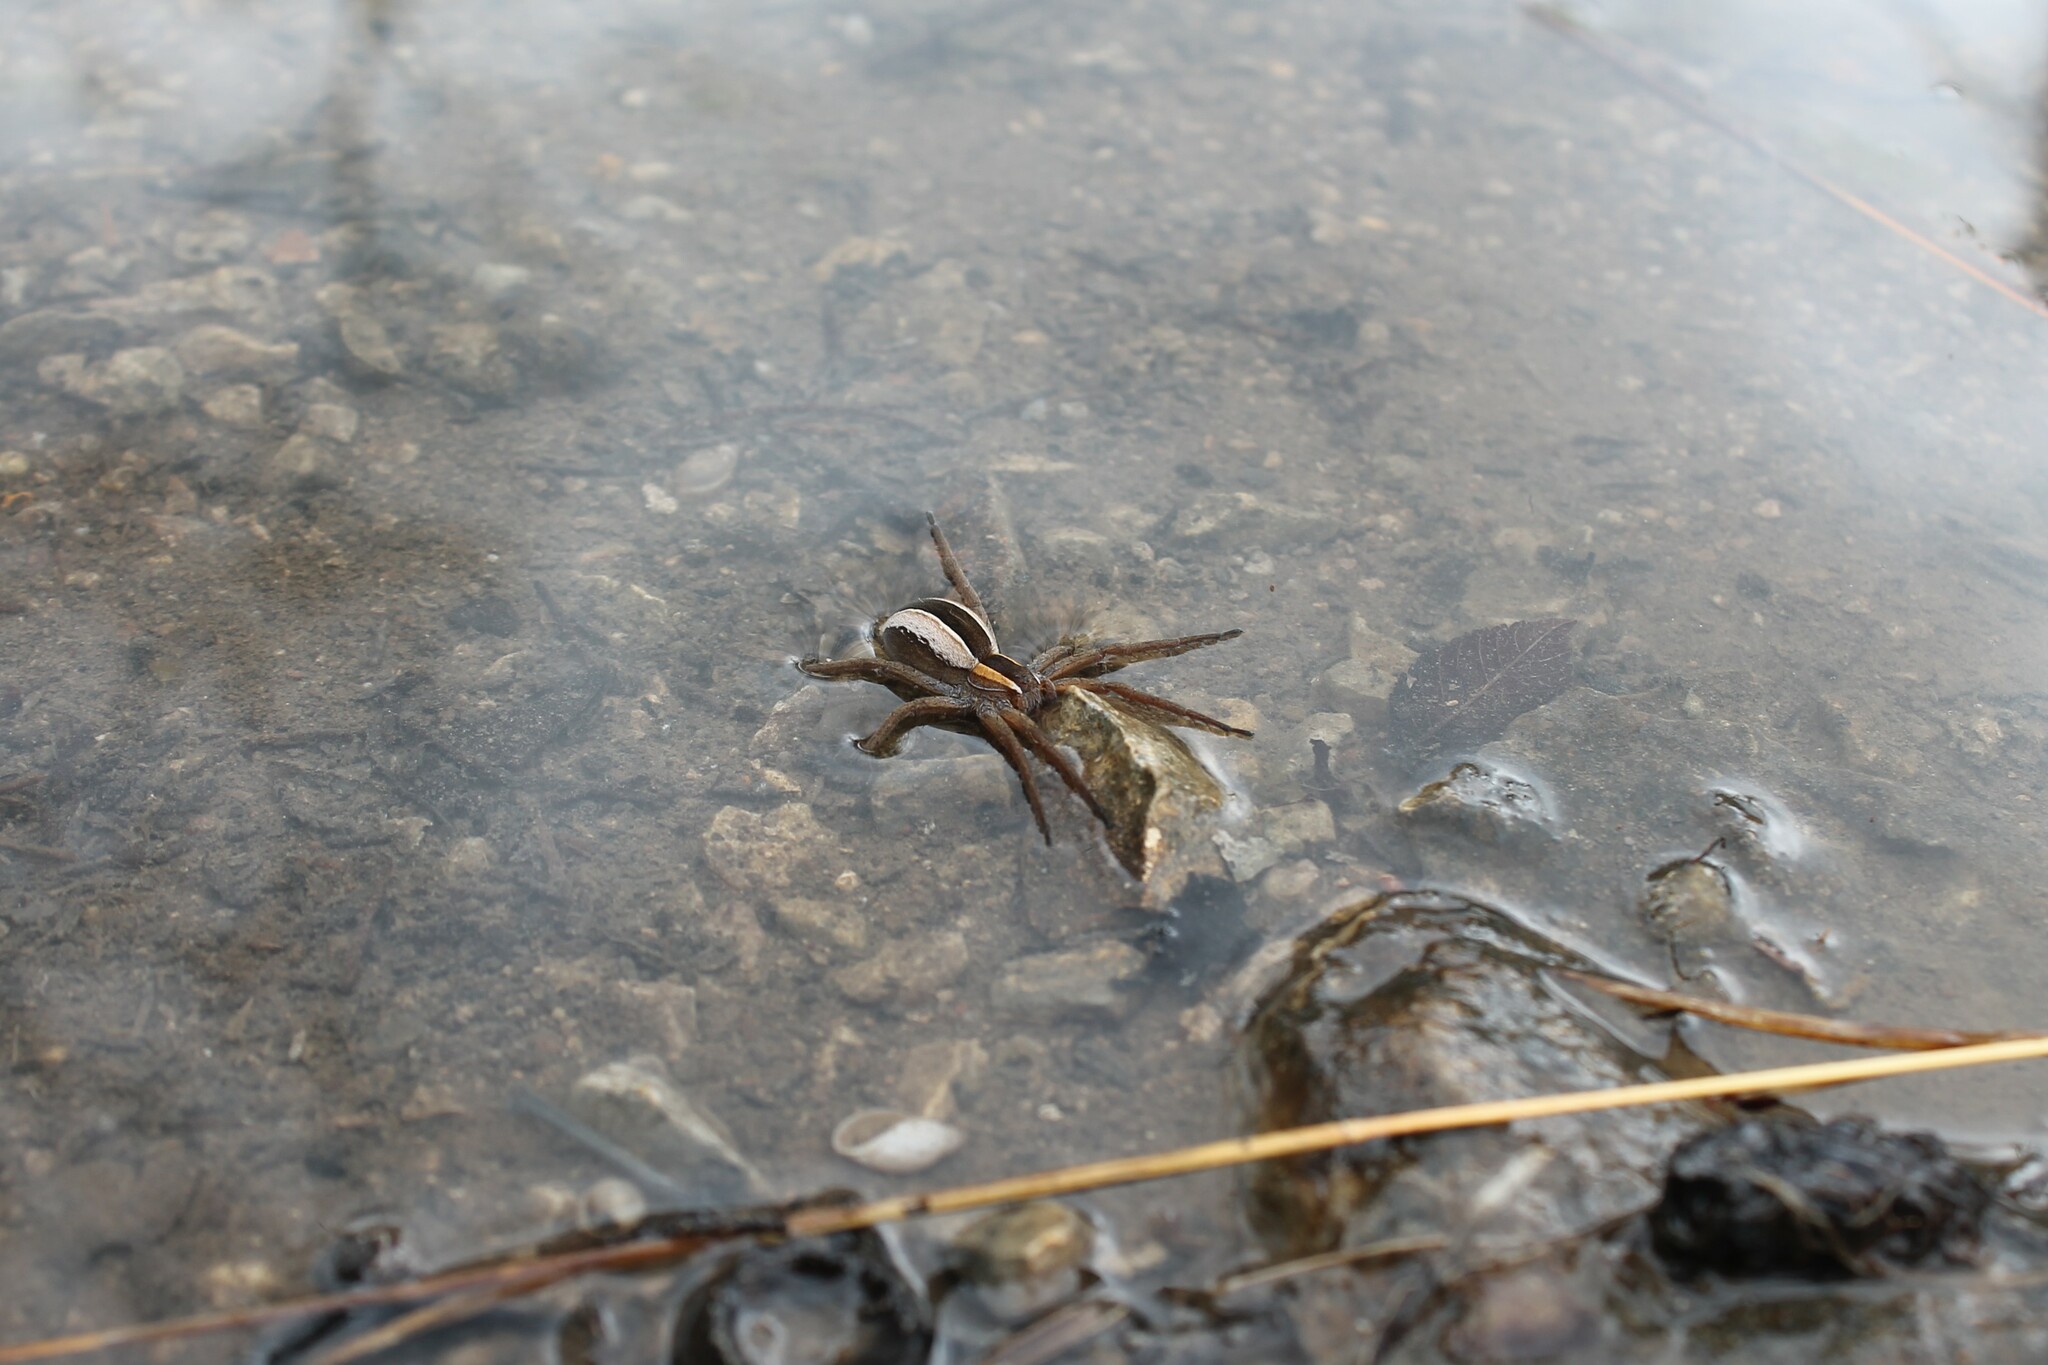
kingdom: Animalia
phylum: Arthropoda
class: Arachnida
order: Araneae
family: Pisauridae
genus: Pisaurina
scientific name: Pisaurina brevipes
